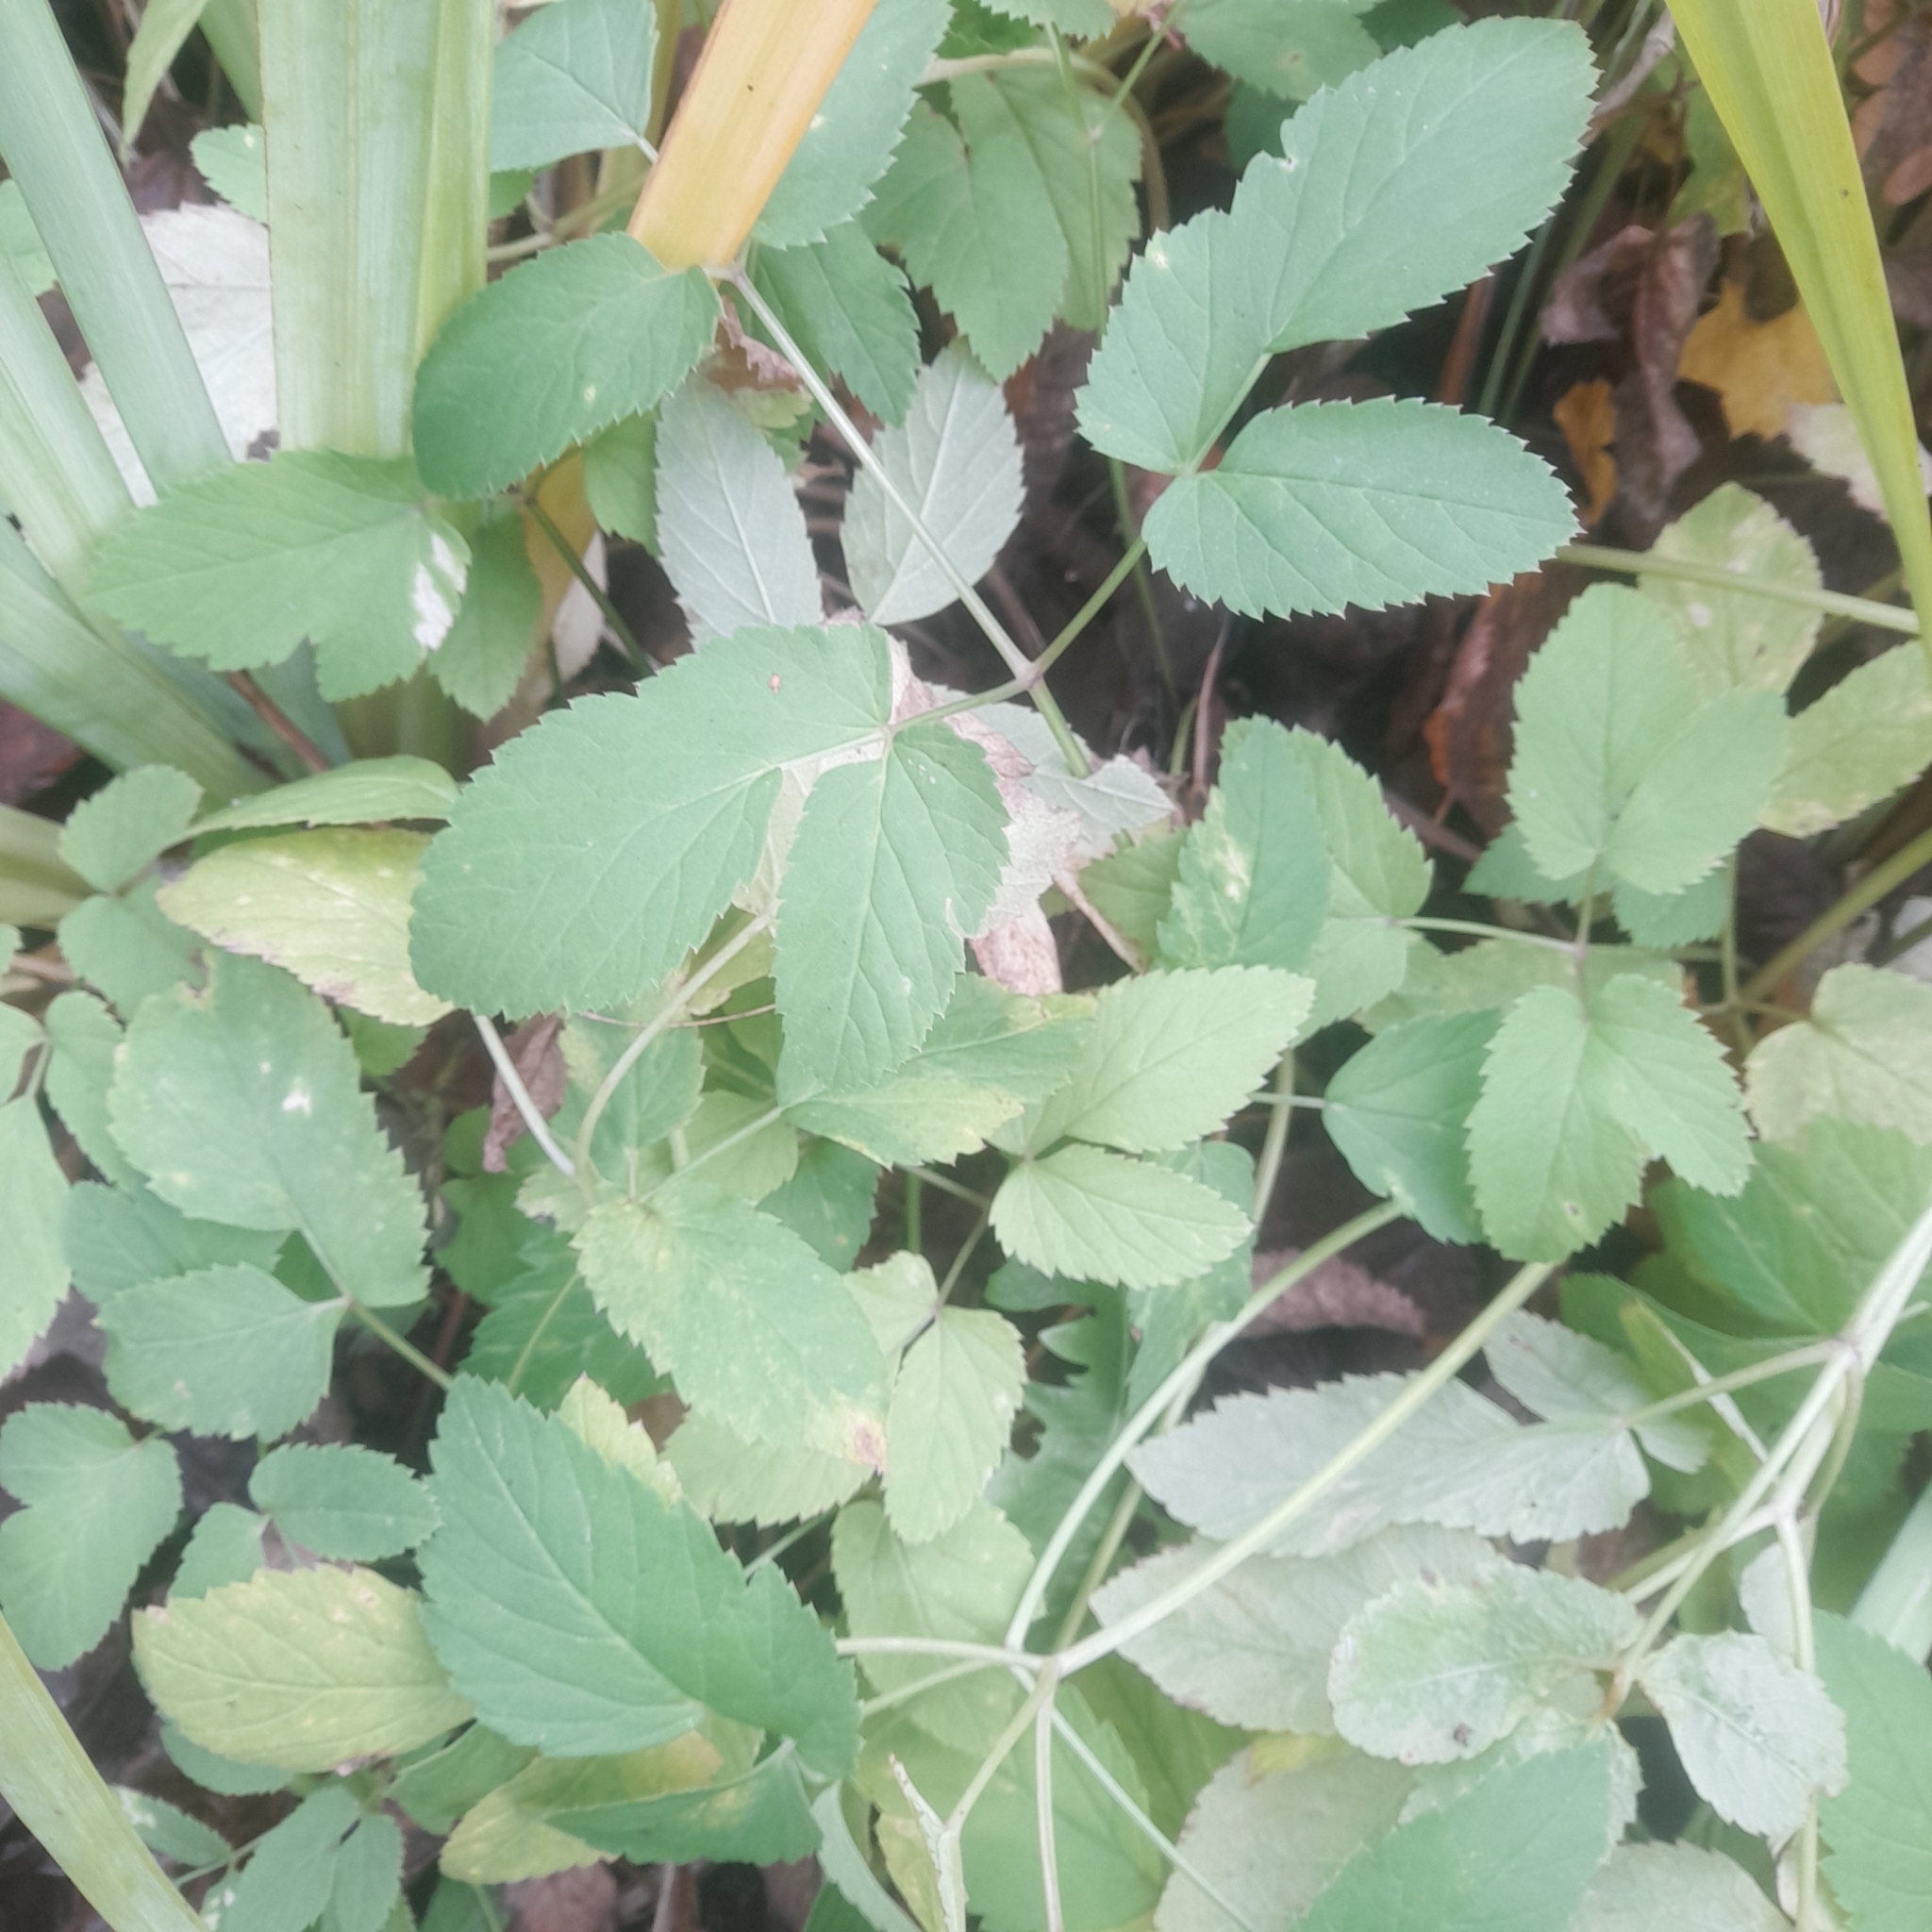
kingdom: Plantae
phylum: Tracheophyta
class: Magnoliopsida
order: Apiales
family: Apiaceae
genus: Aegopodium
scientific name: Aegopodium podagraria
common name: Ground-elder
